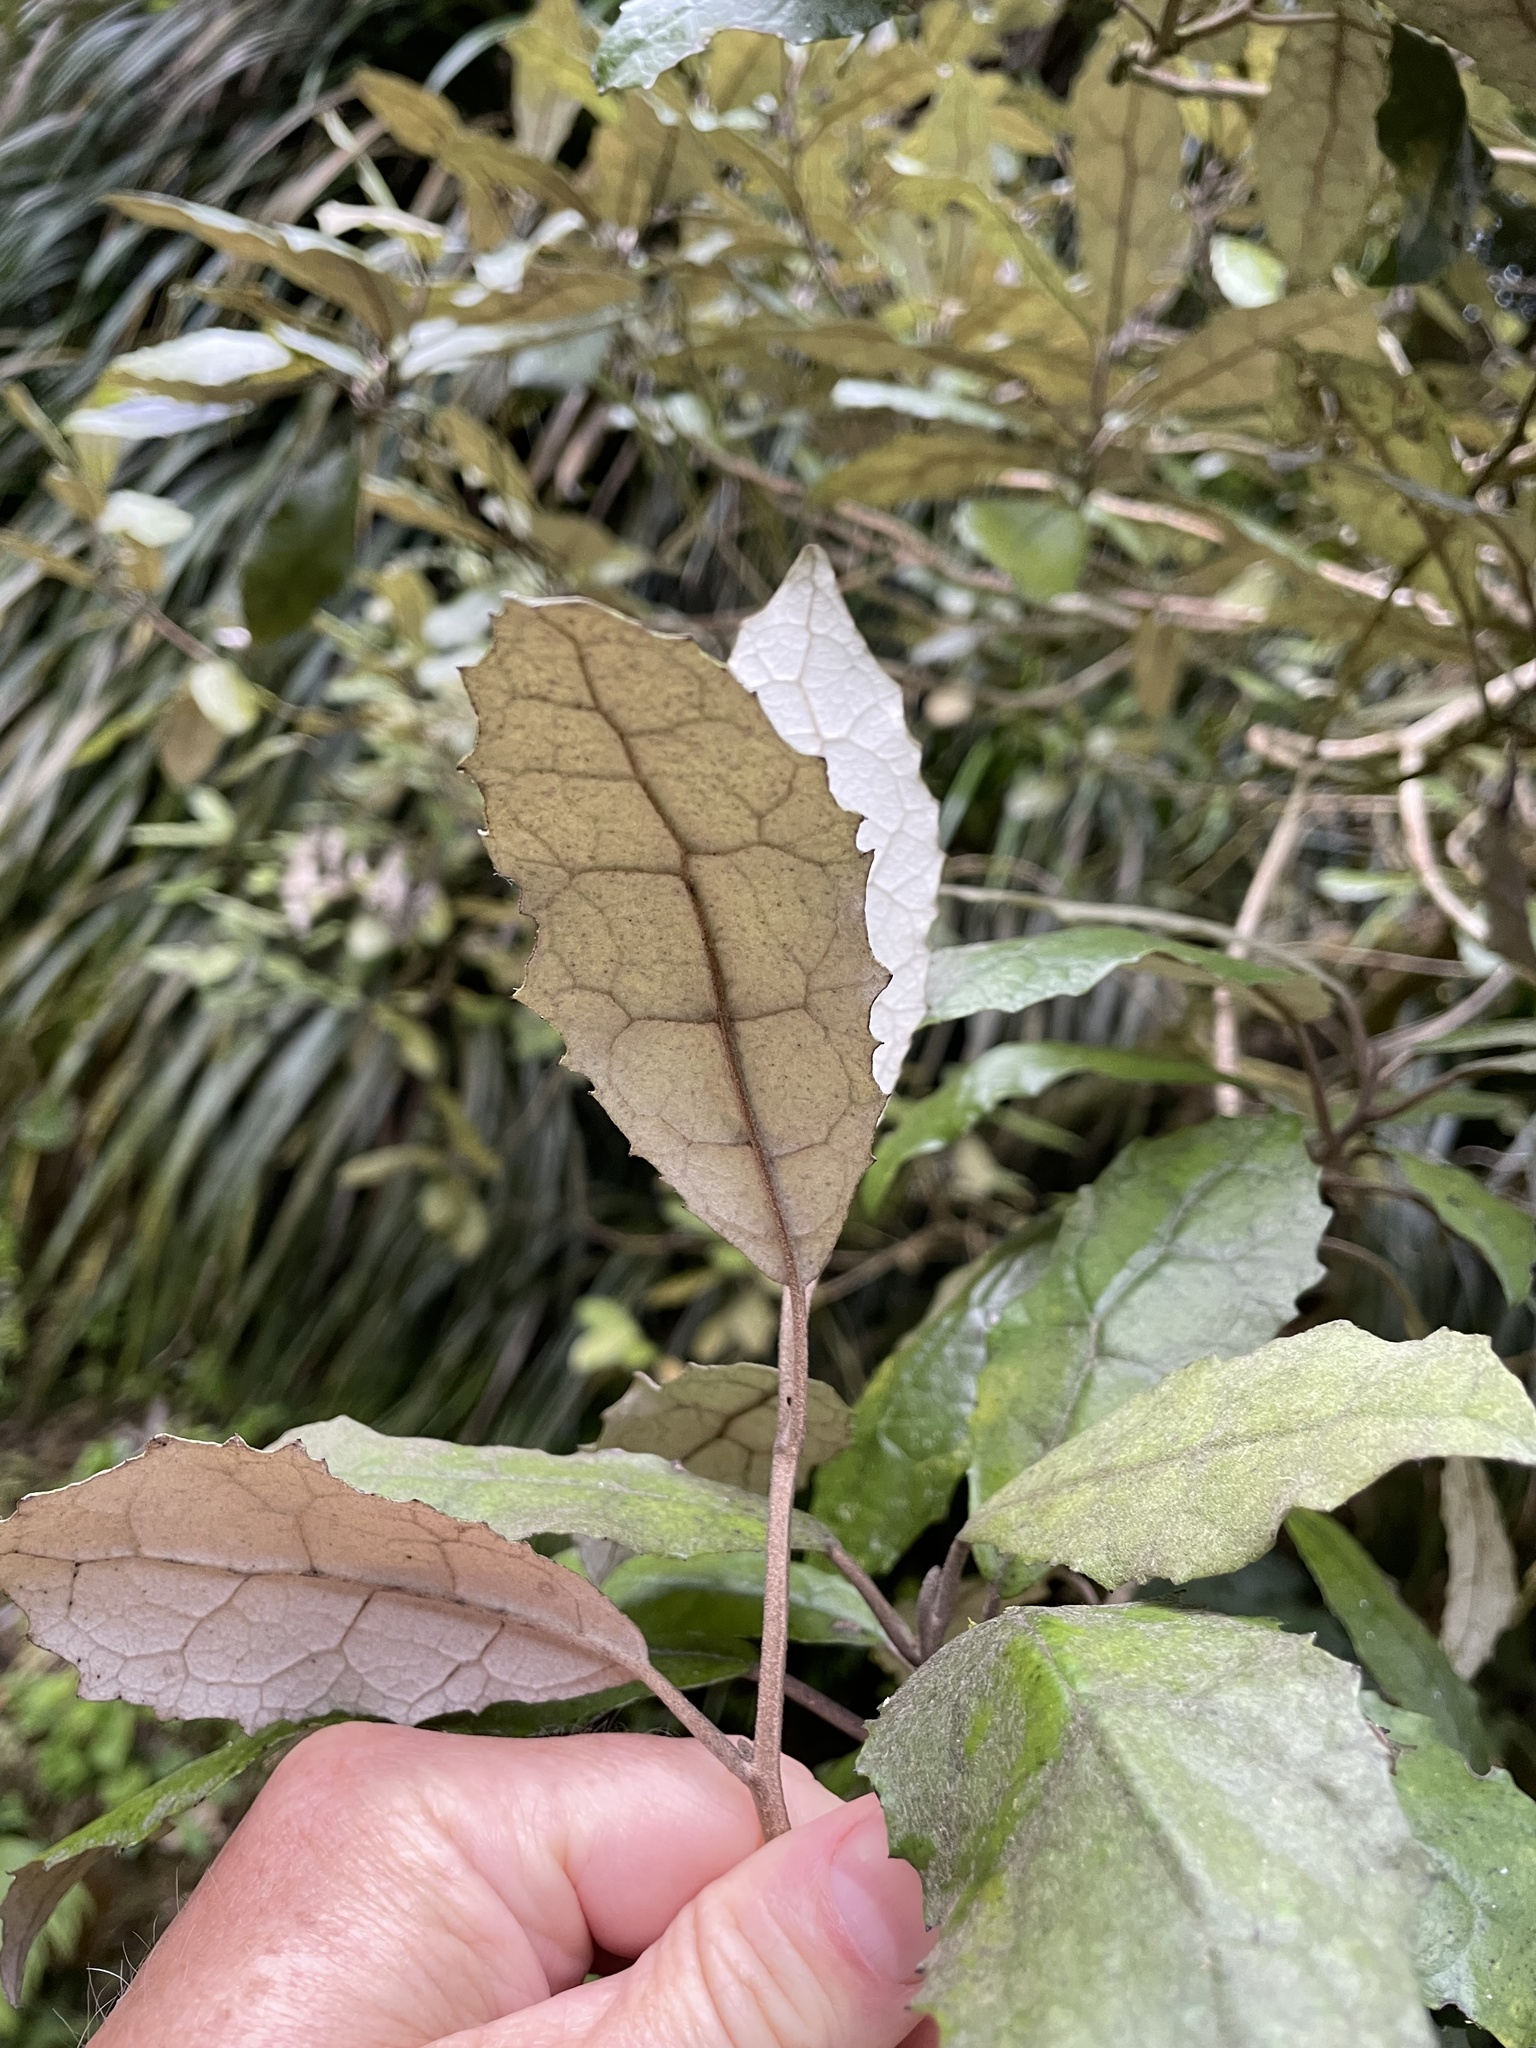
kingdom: Plantae
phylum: Tracheophyta
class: Magnoliopsida
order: Asterales
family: Asteraceae
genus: Olearia
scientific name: Olearia rani
